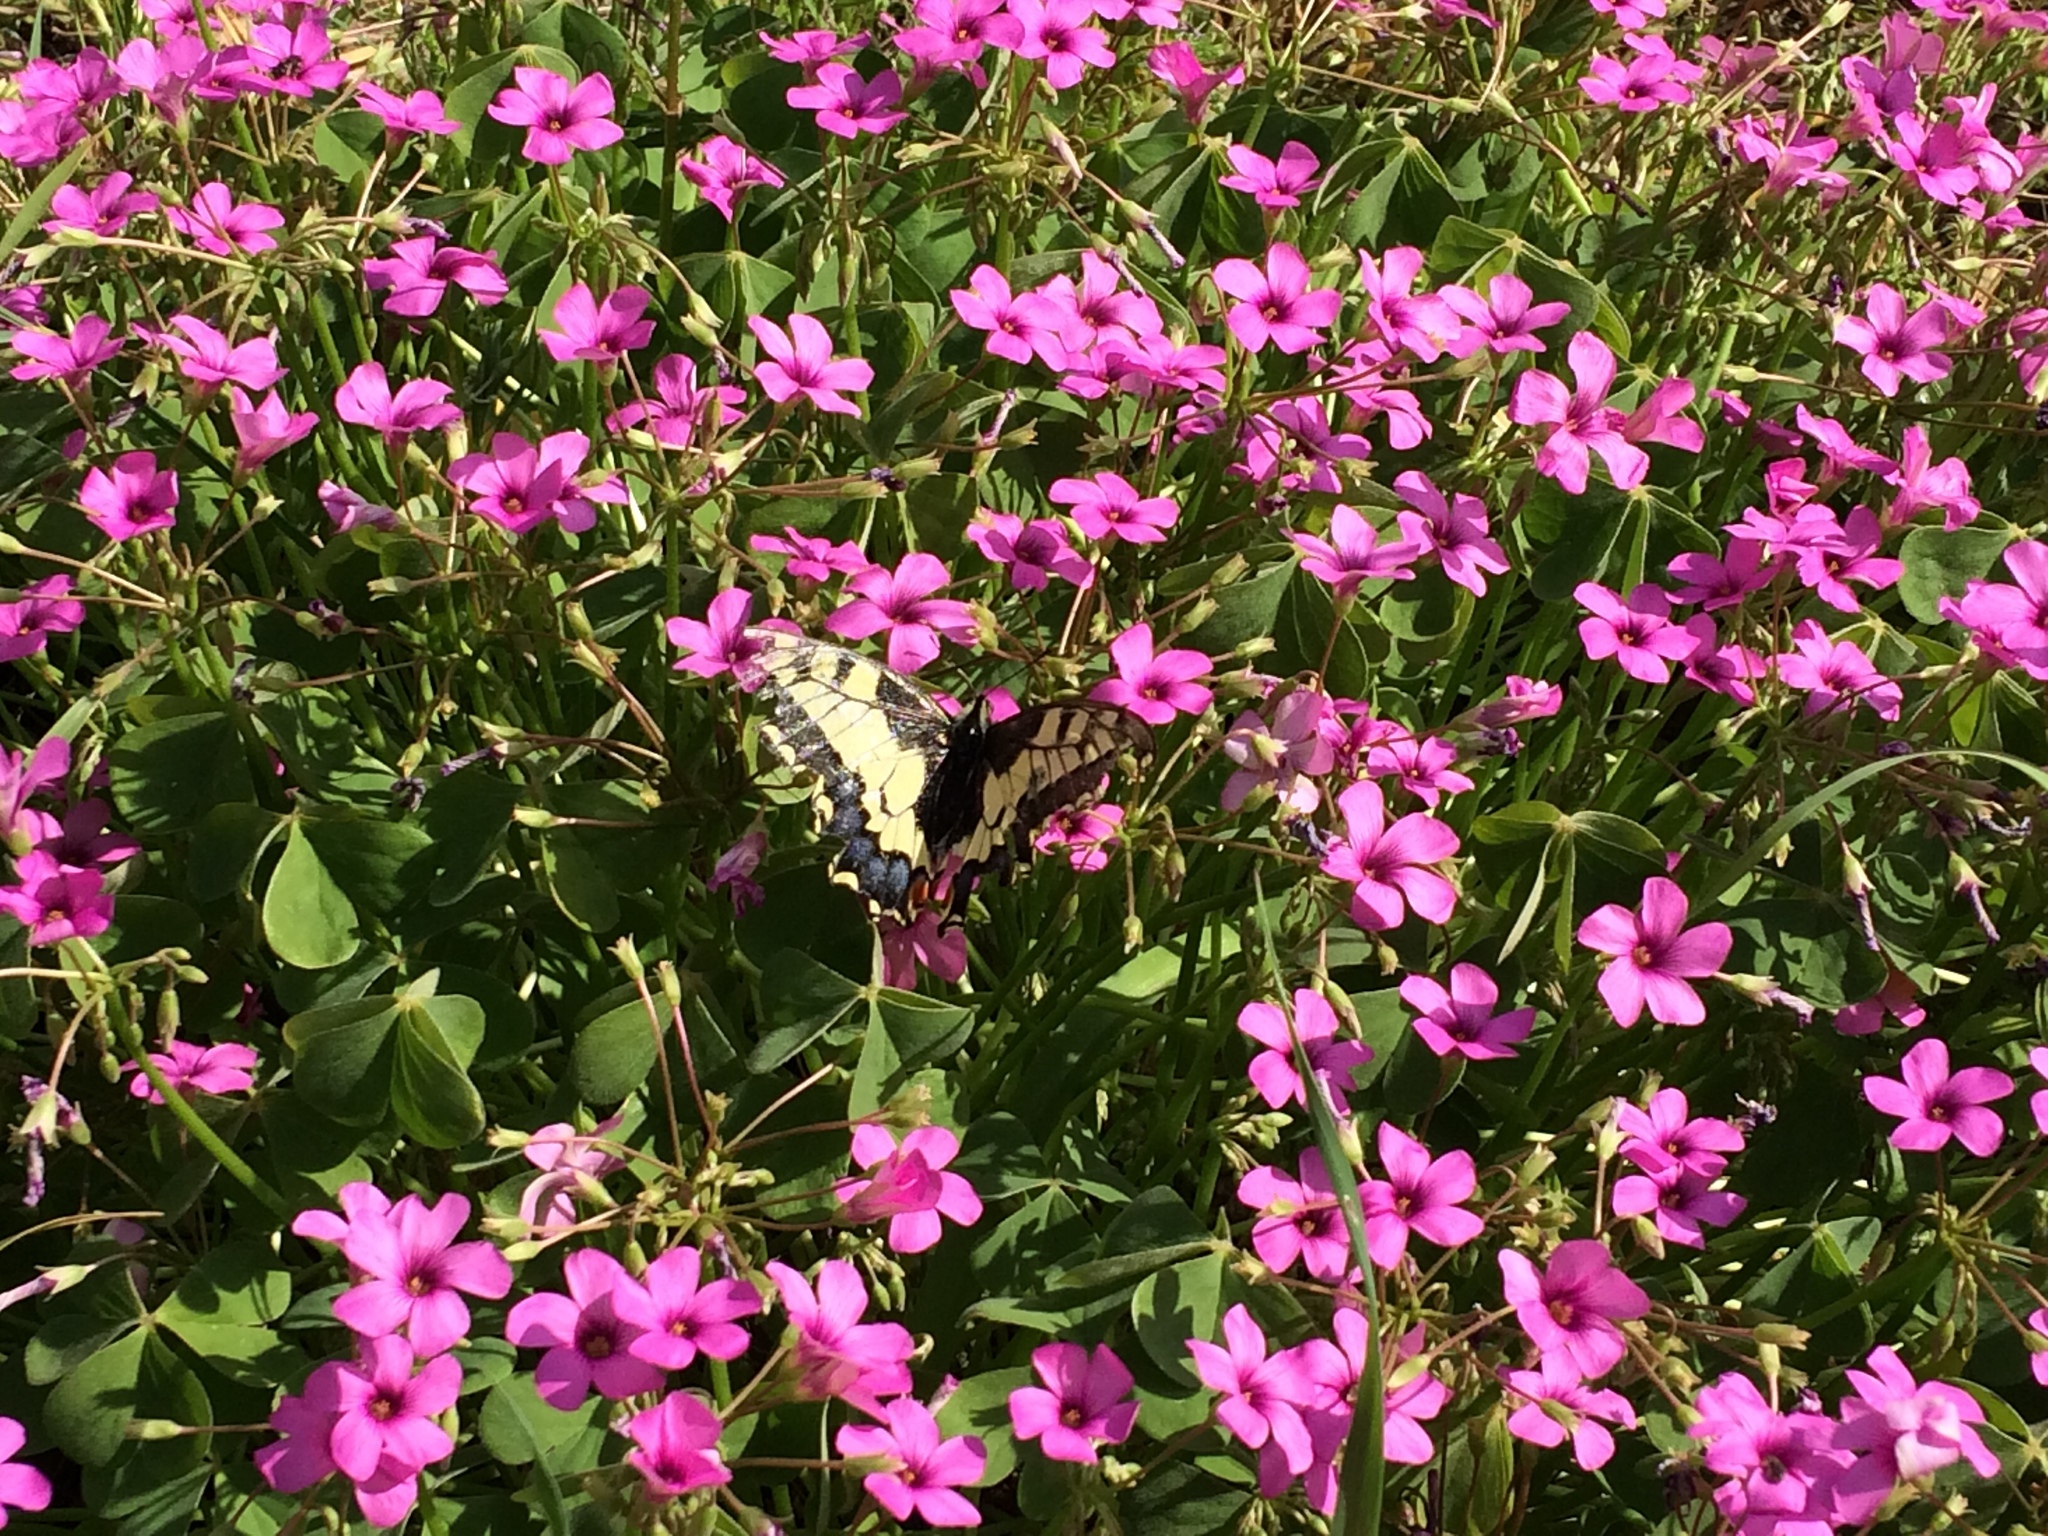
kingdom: Animalia
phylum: Arthropoda
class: Insecta
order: Lepidoptera
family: Papilionidae
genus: Papilio
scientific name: Papilio machaon
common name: Swallowtail
